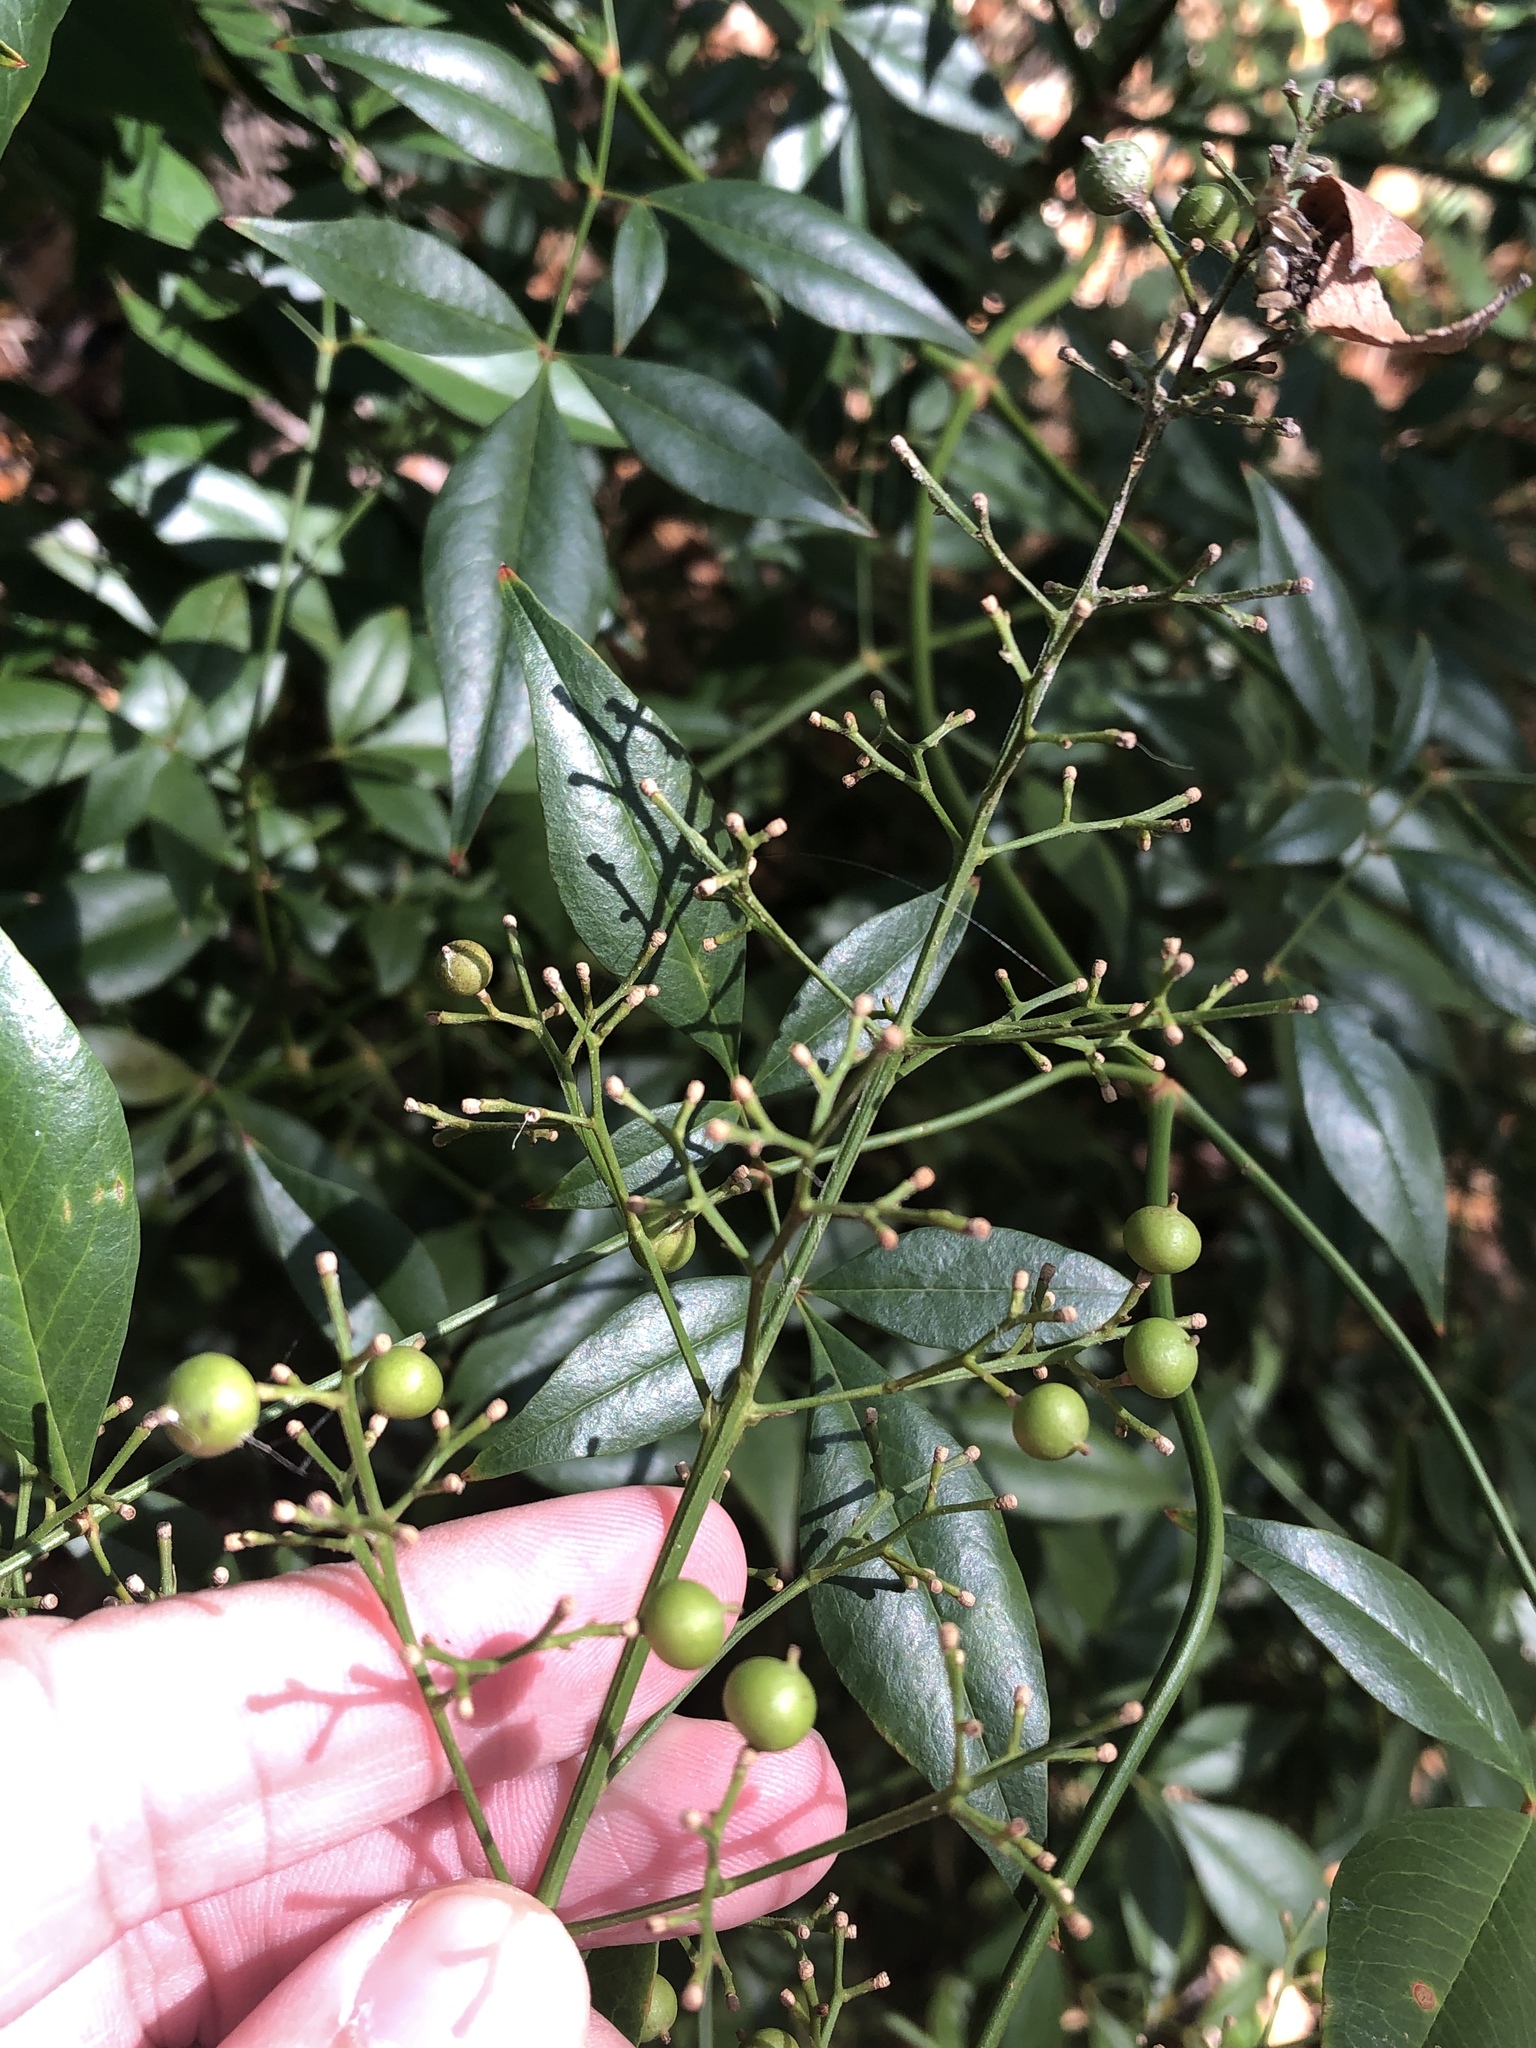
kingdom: Plantae
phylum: Tracheophyta
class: Magnoliopsida
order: Ranunculales
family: Berberidaceae
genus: Nandina
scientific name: Nandina domestica
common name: Sacred bamboo
